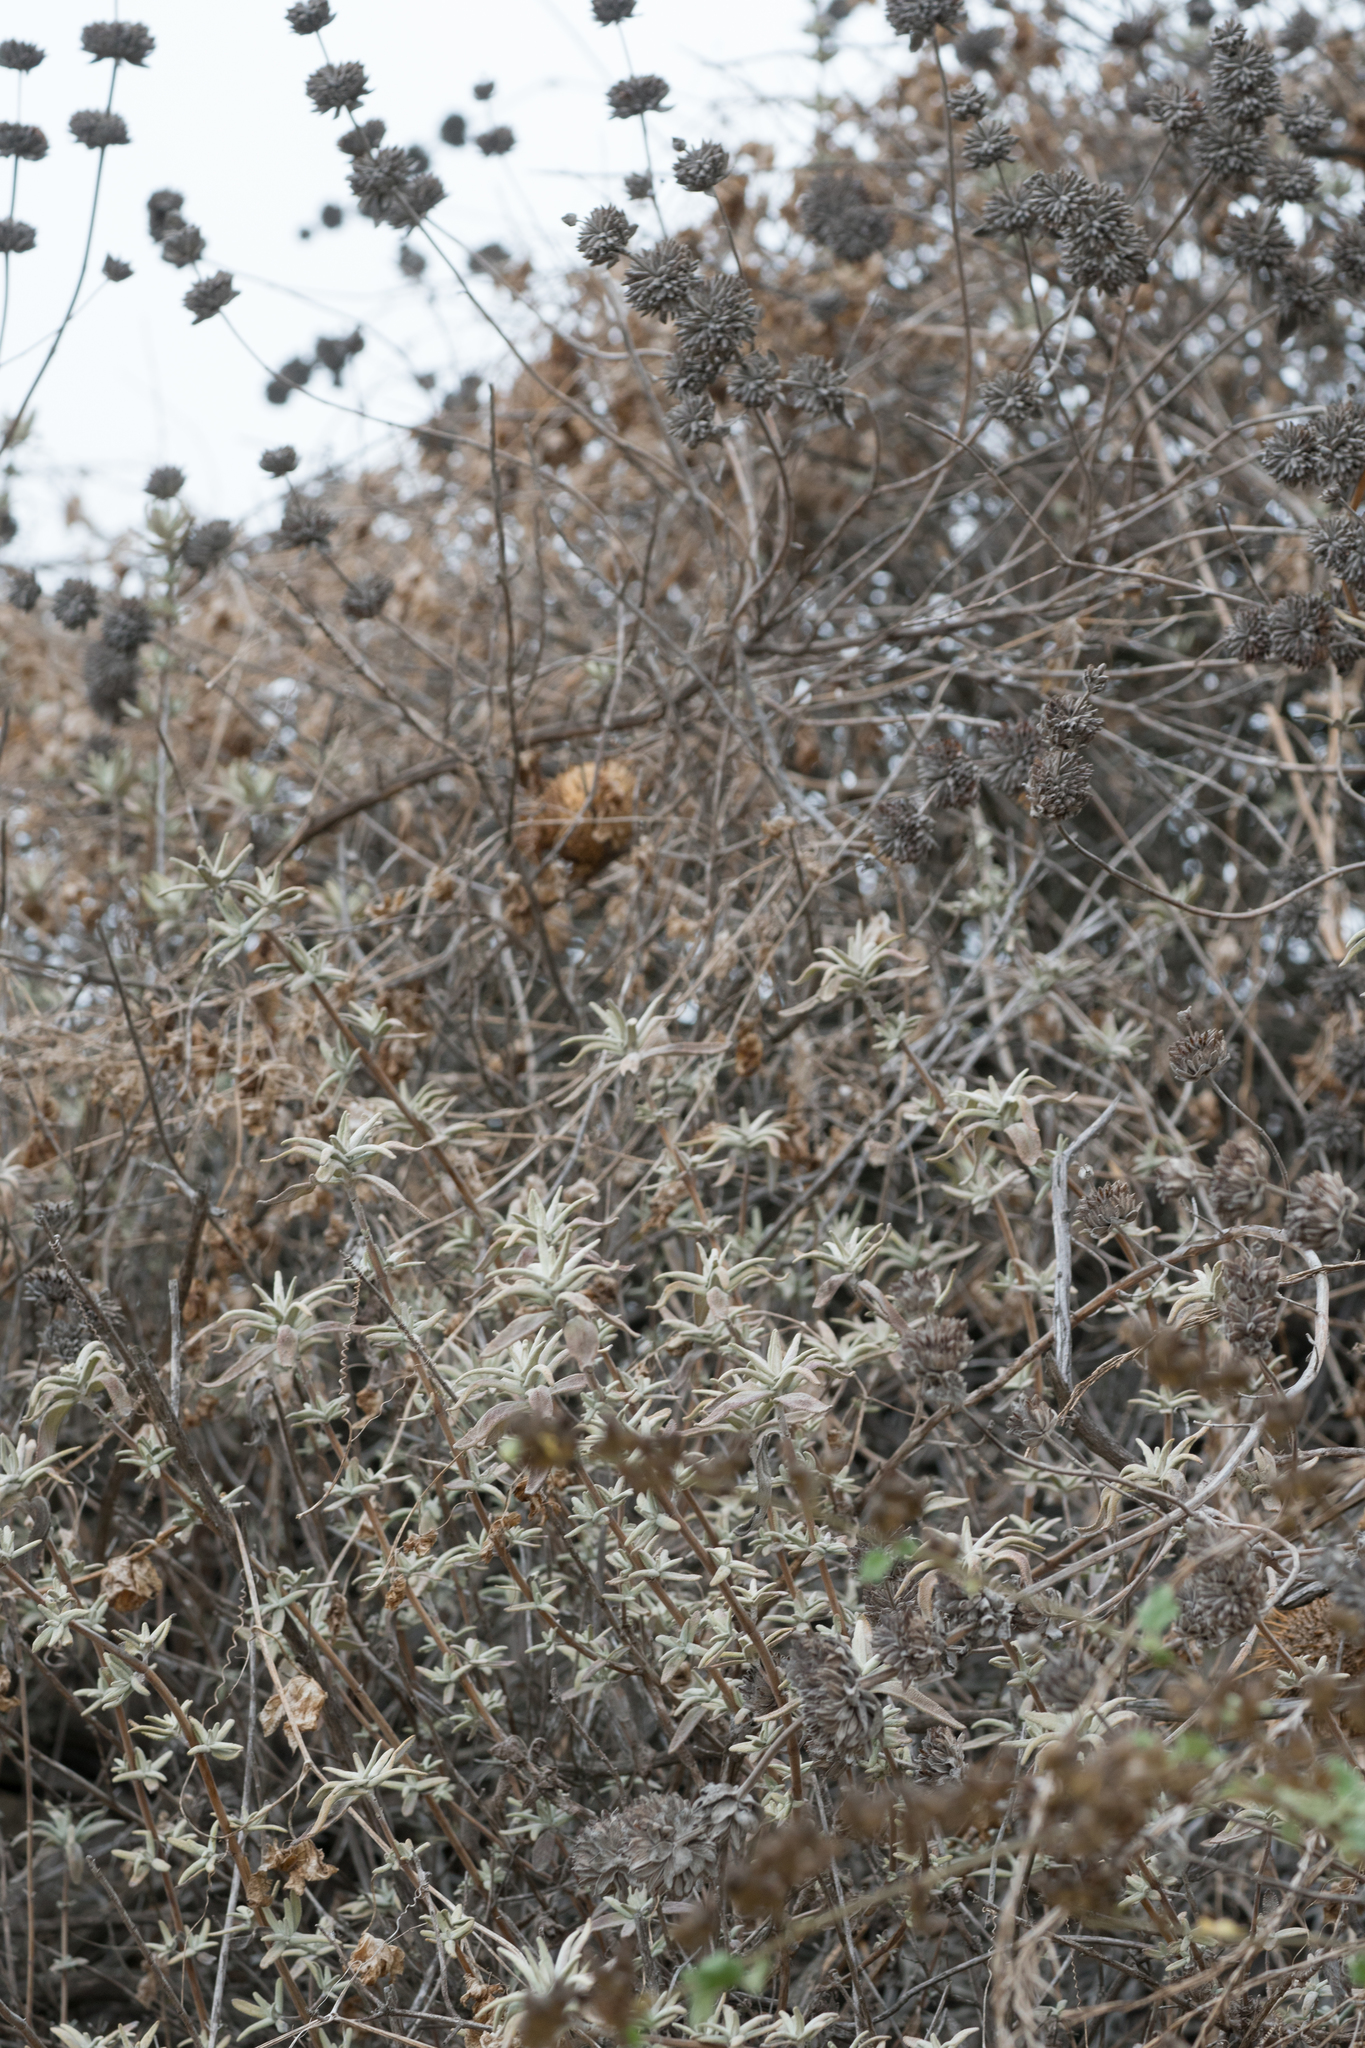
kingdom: Plantae
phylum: Tracheophyta
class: Magnoliopsida
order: Lamiales
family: Lamiaceae
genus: Salvia
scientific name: Salvia leucophylla
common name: Purple sage
